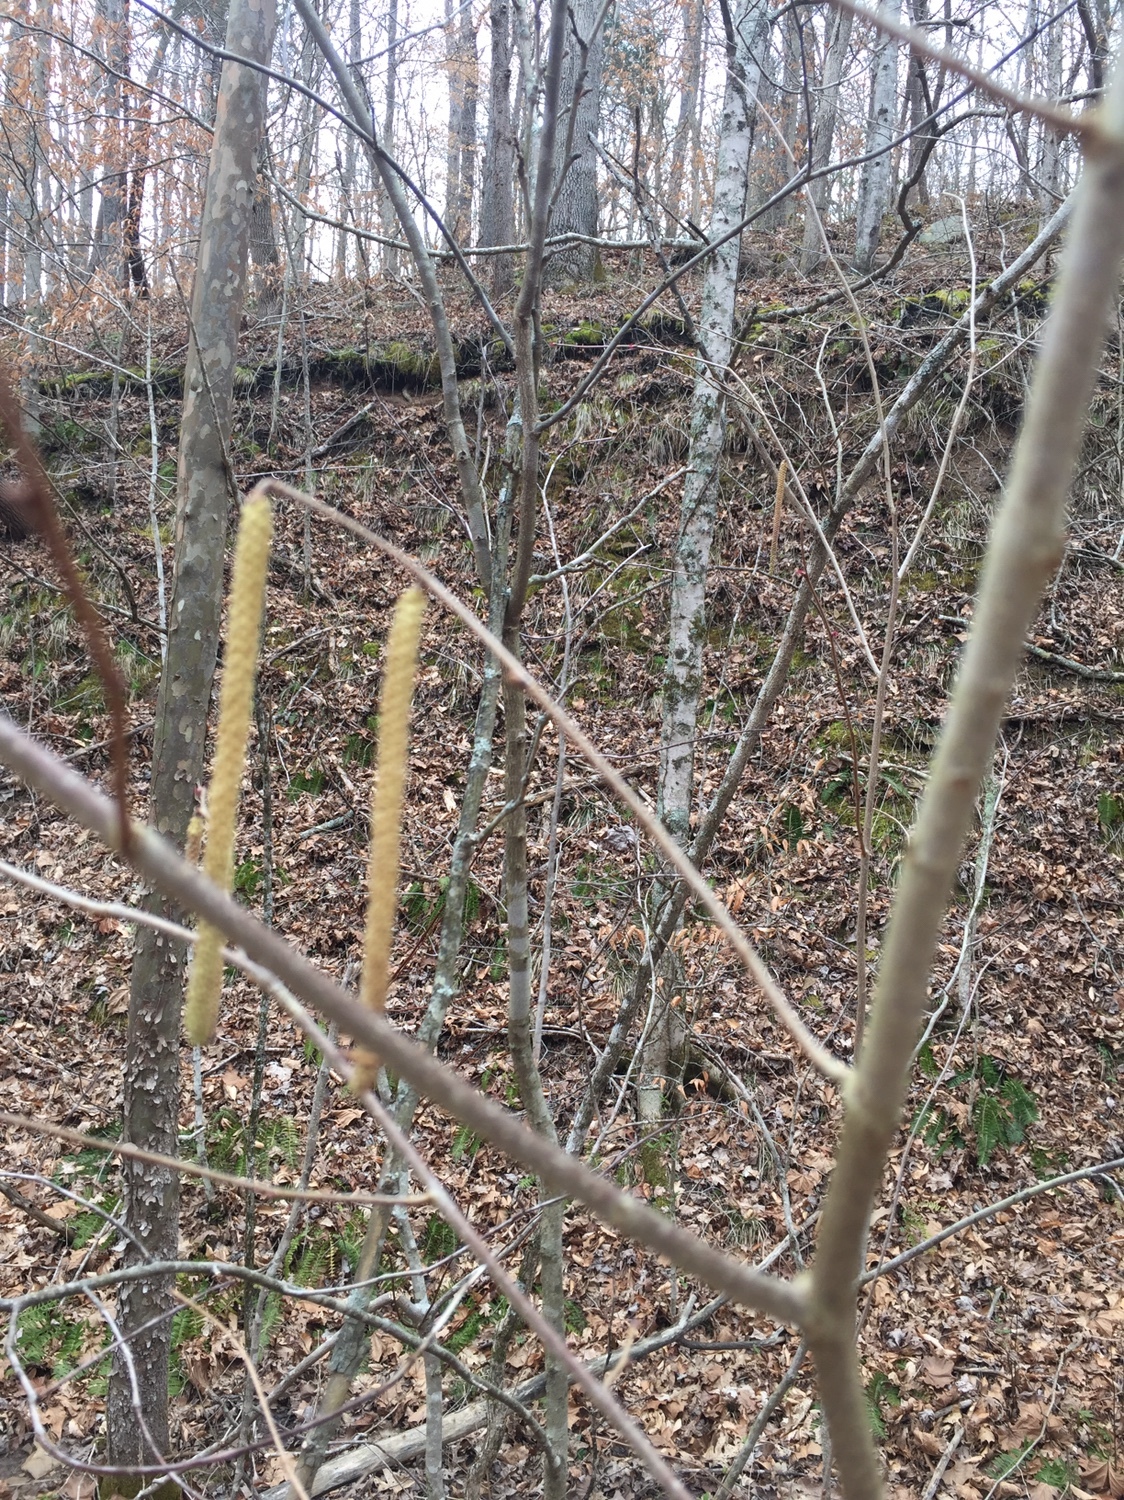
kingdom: Plantae
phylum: Tracheophyta
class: Magnoliopsida
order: Fagales
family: Betulaceae
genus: Corylus
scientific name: Corylus americana
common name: American hazel
